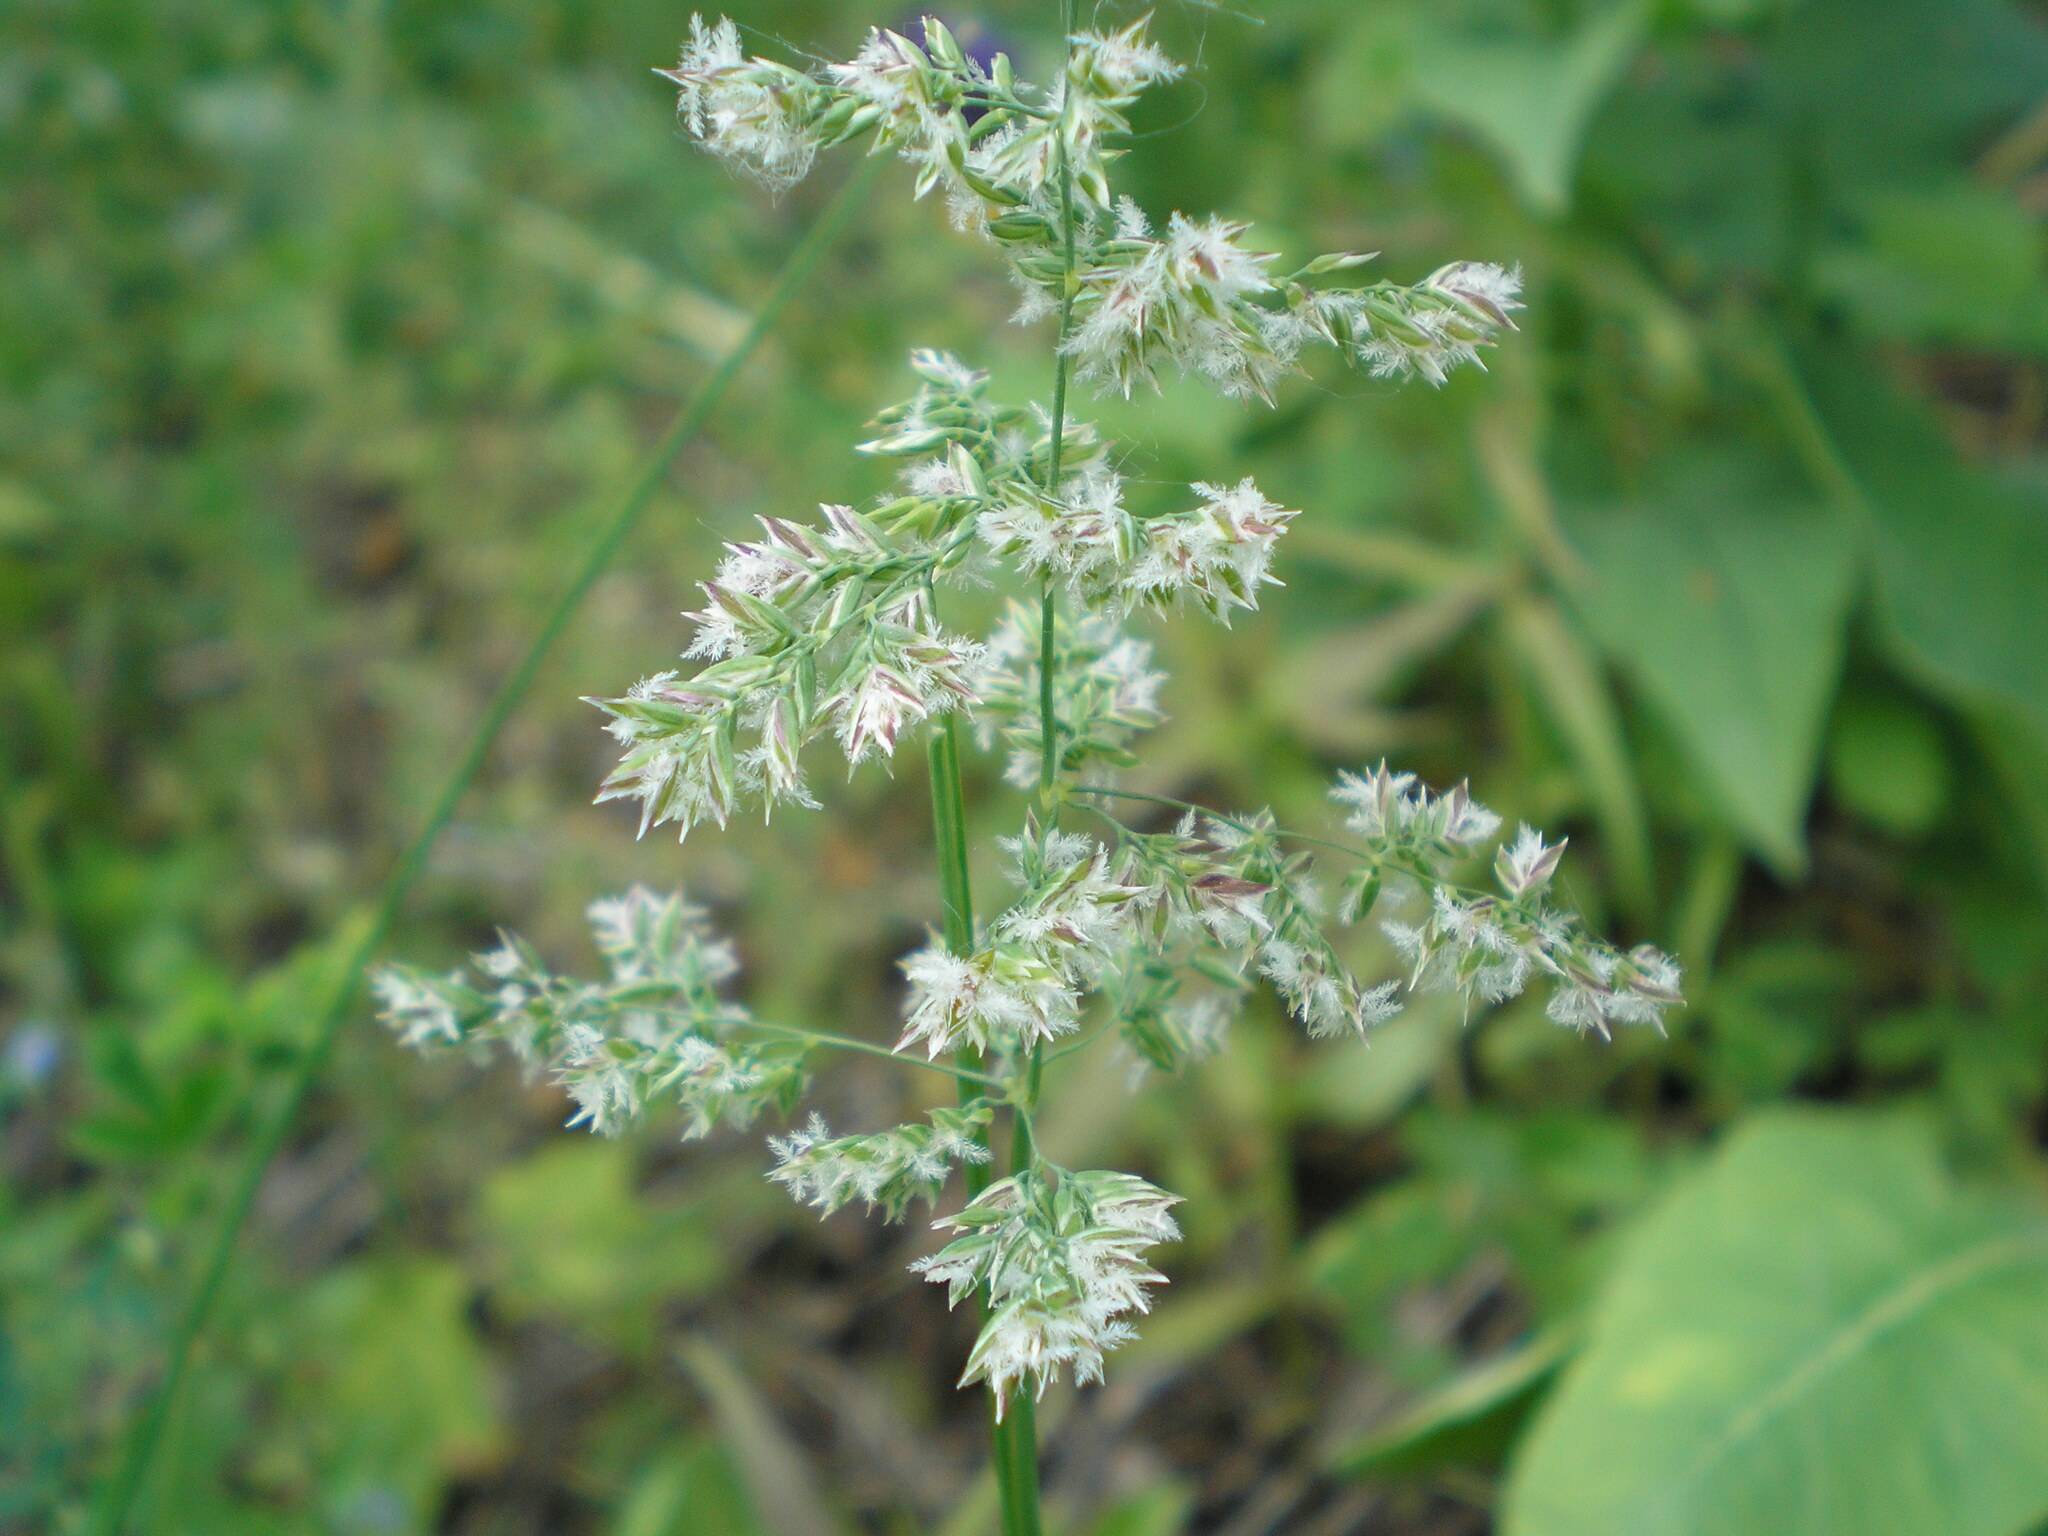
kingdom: Plantae
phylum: Tracheophyta
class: Liliopsida
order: Poales
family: Poaceae
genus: Dactylis
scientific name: Dactylis glomerata
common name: Orchardgrass
